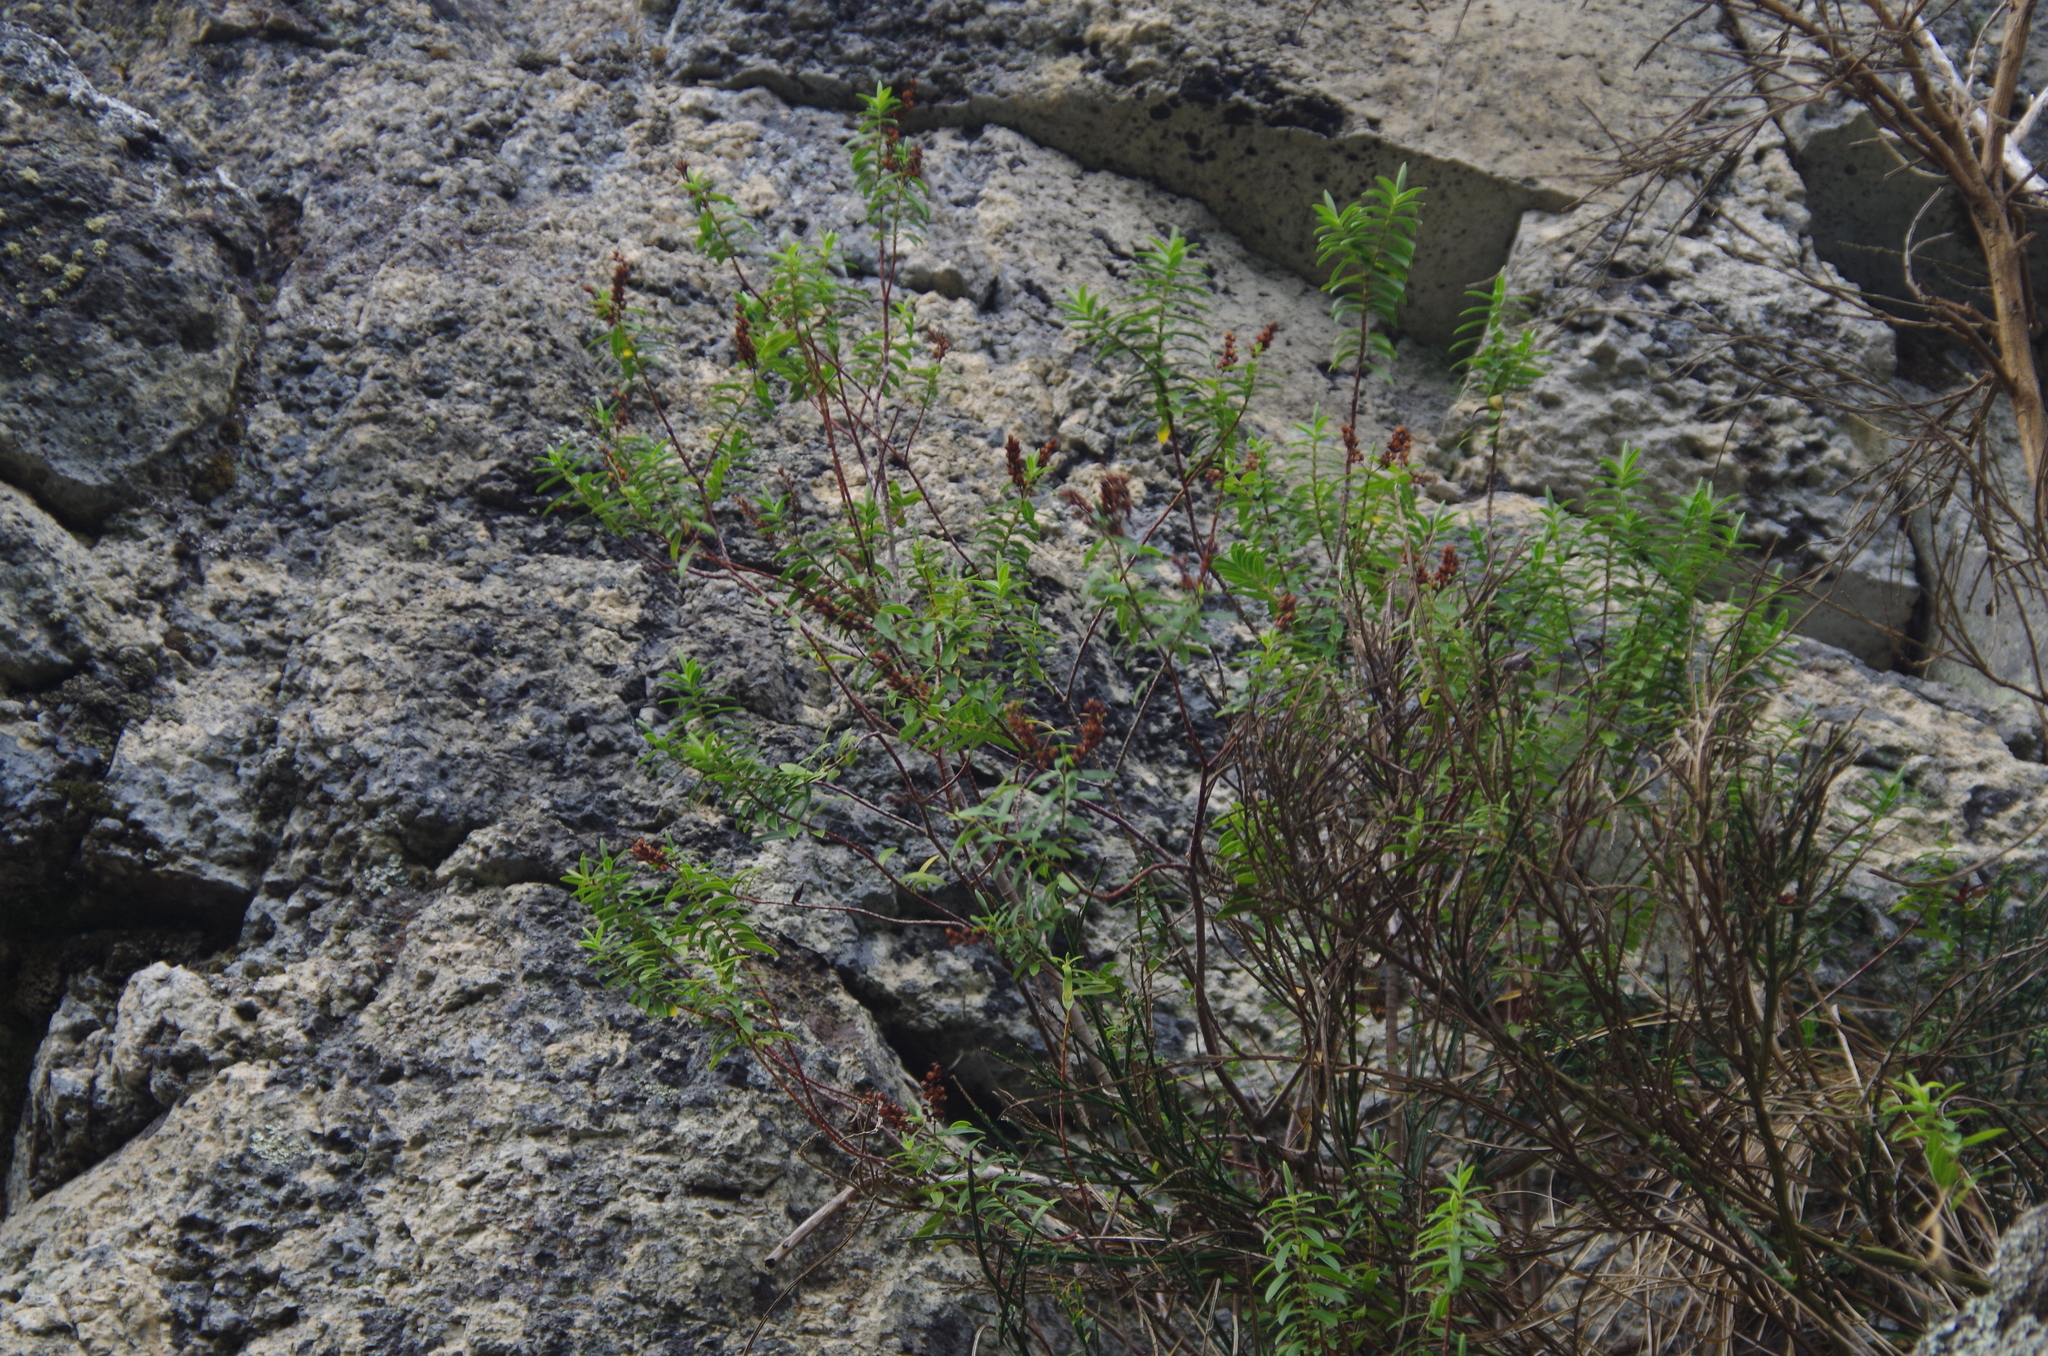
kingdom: Plantae
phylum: Tracheophyta
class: Magnoliopsida
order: Lamiales
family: Plantaginaceae
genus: Veronica
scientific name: Veronica strictissima
